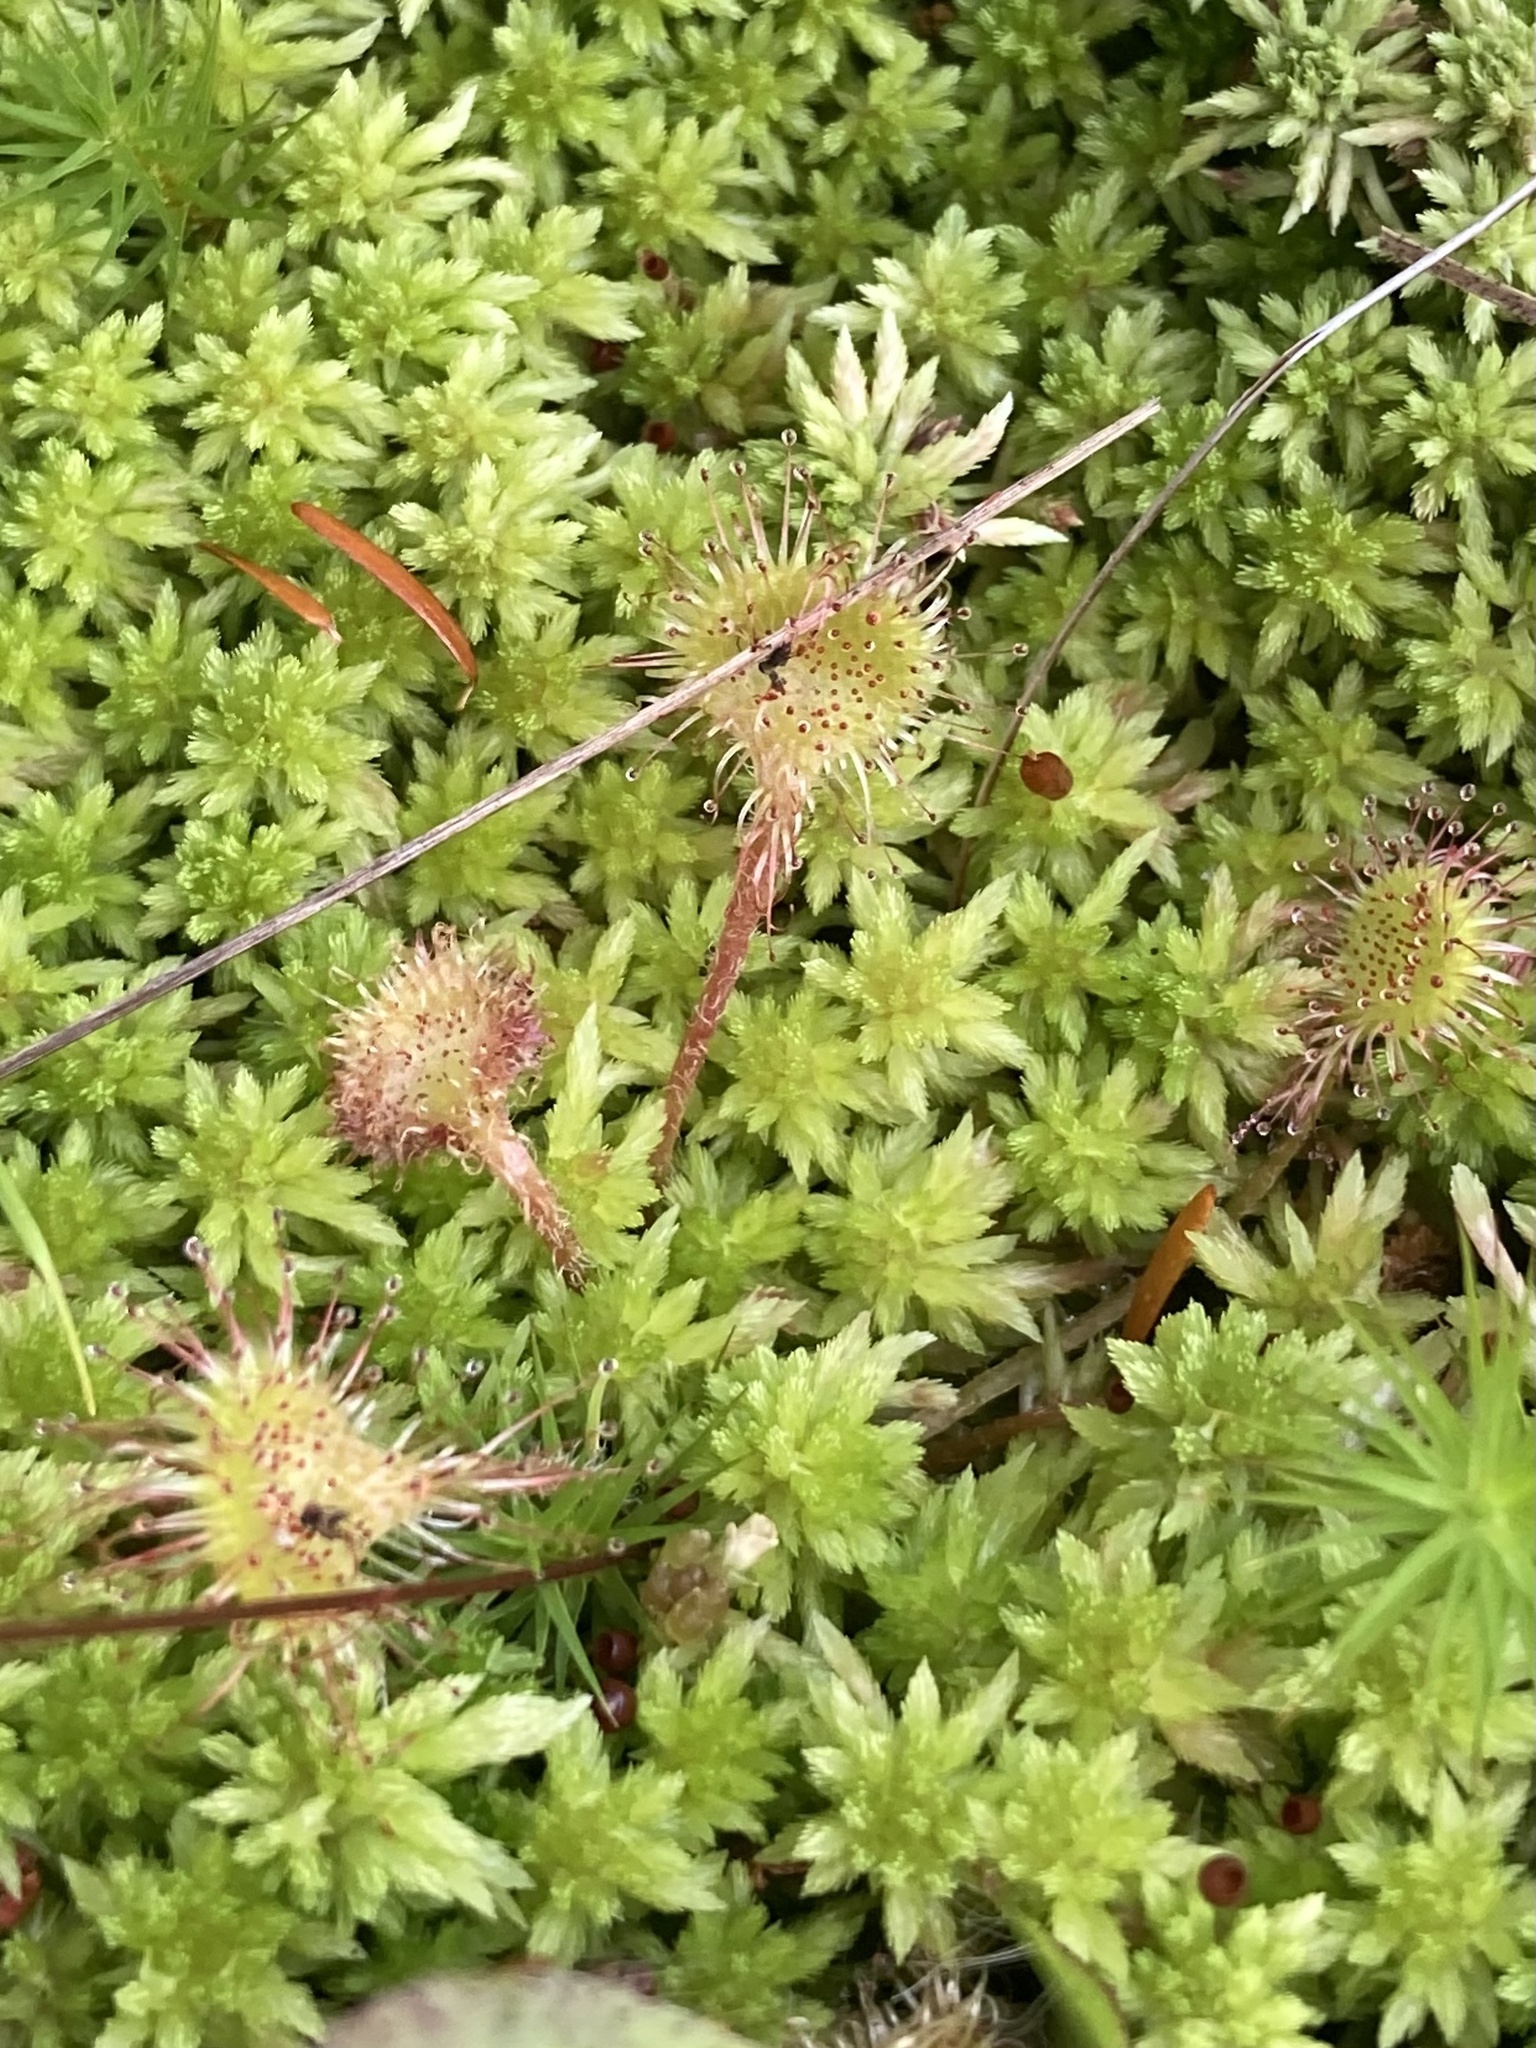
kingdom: Plantae
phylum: Tracheophyta
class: Magnoliopsida
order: Caryophyllales
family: Droseraceae
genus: Drosera
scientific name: Drosera rotundifolia
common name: Round-leaved sundew
